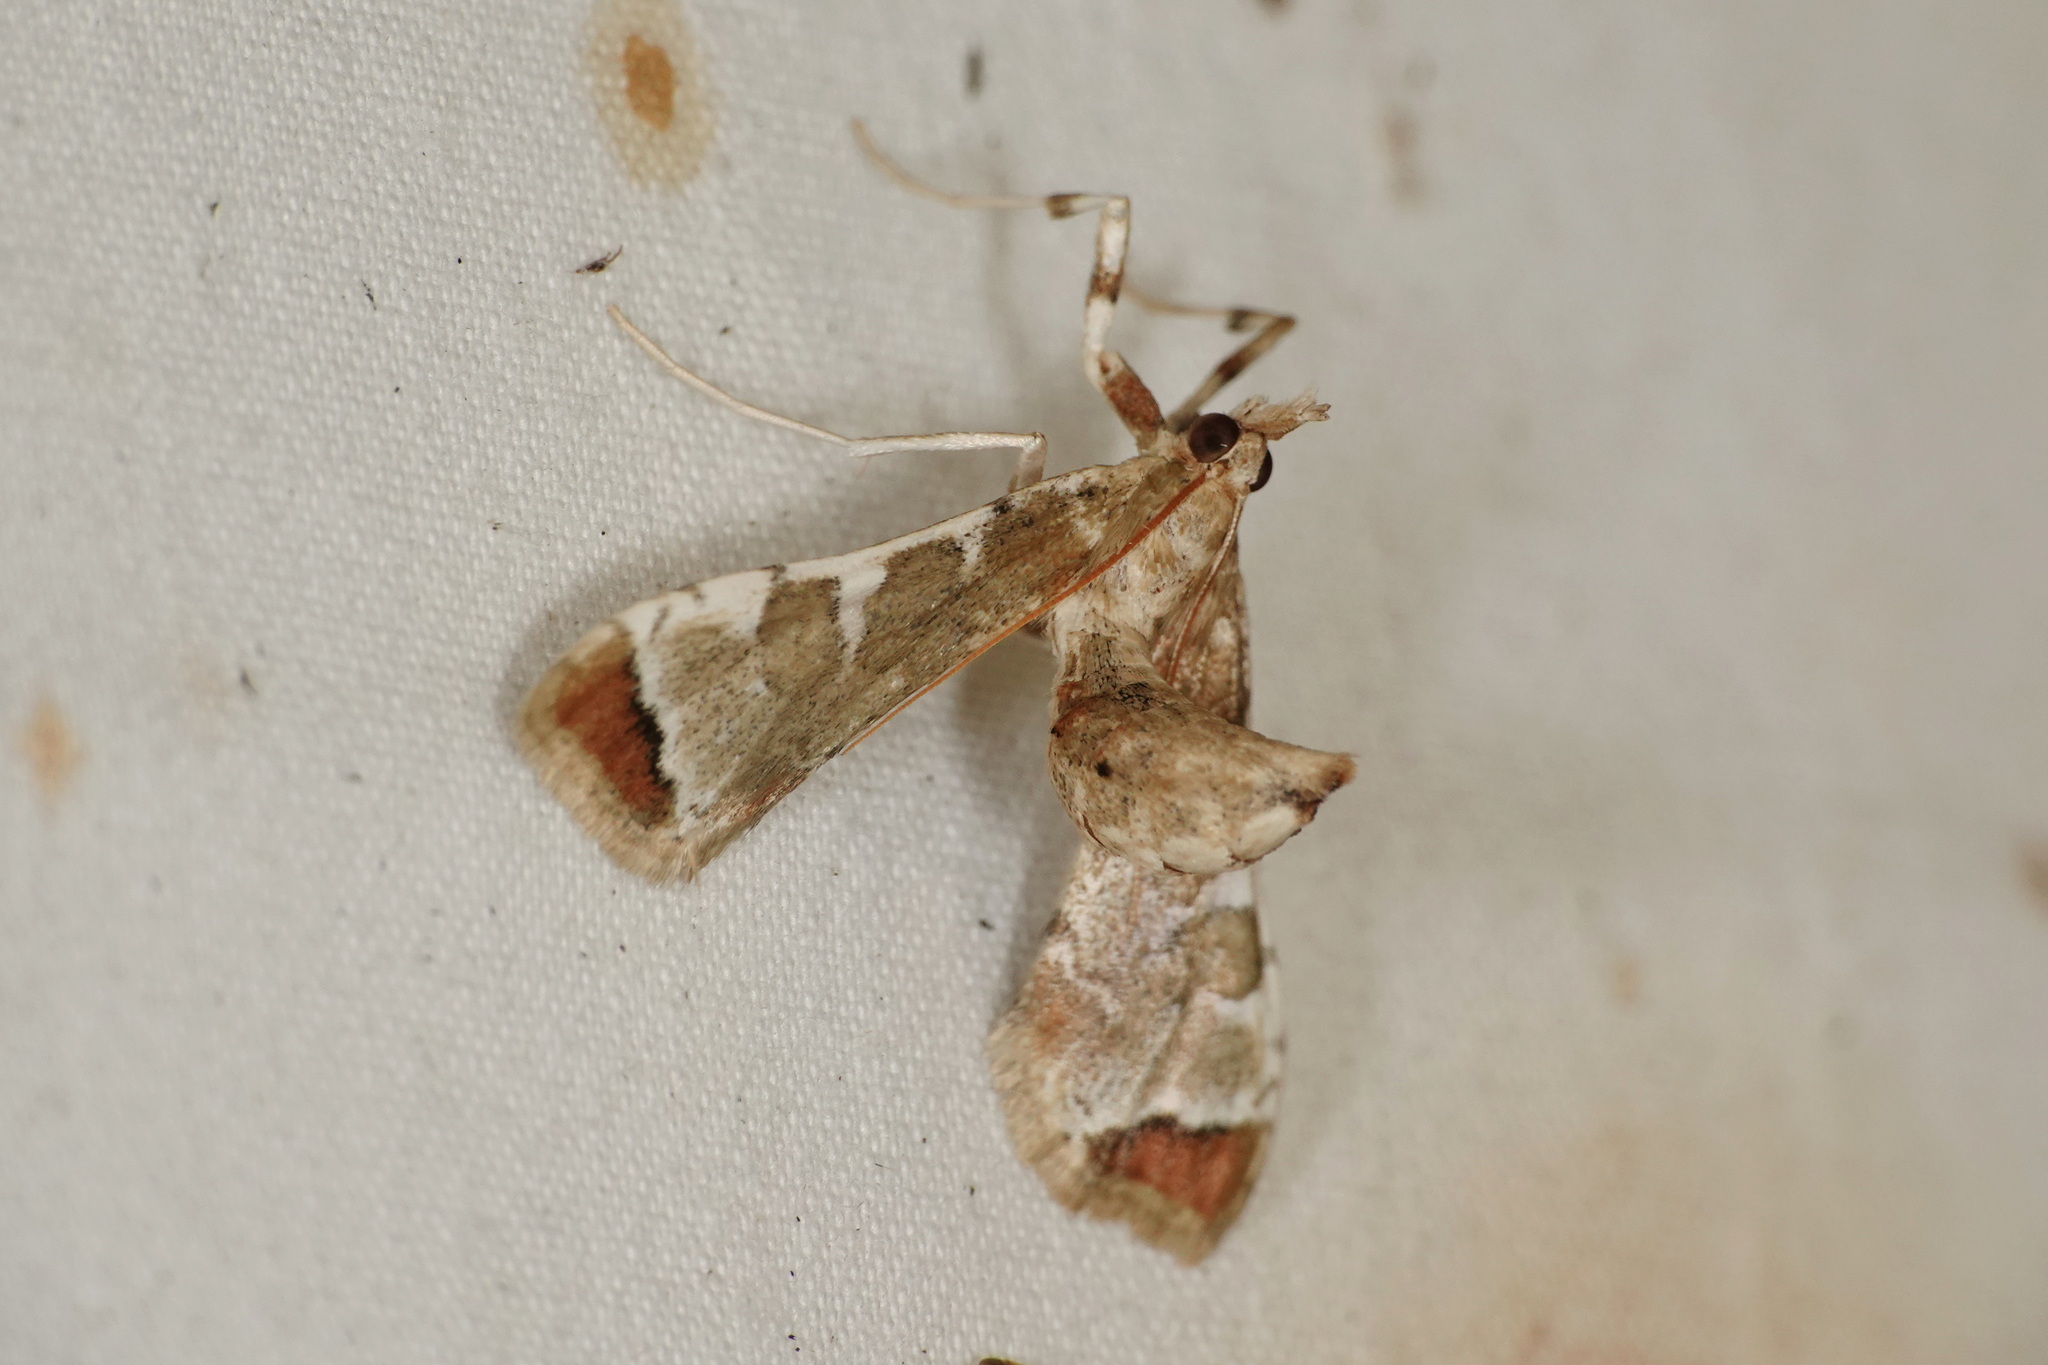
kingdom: Animalia
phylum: Arthropoda
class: Insecta
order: Lepidoptera
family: Crambidae
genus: Sceliodes
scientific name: Sceliodes cordalis
